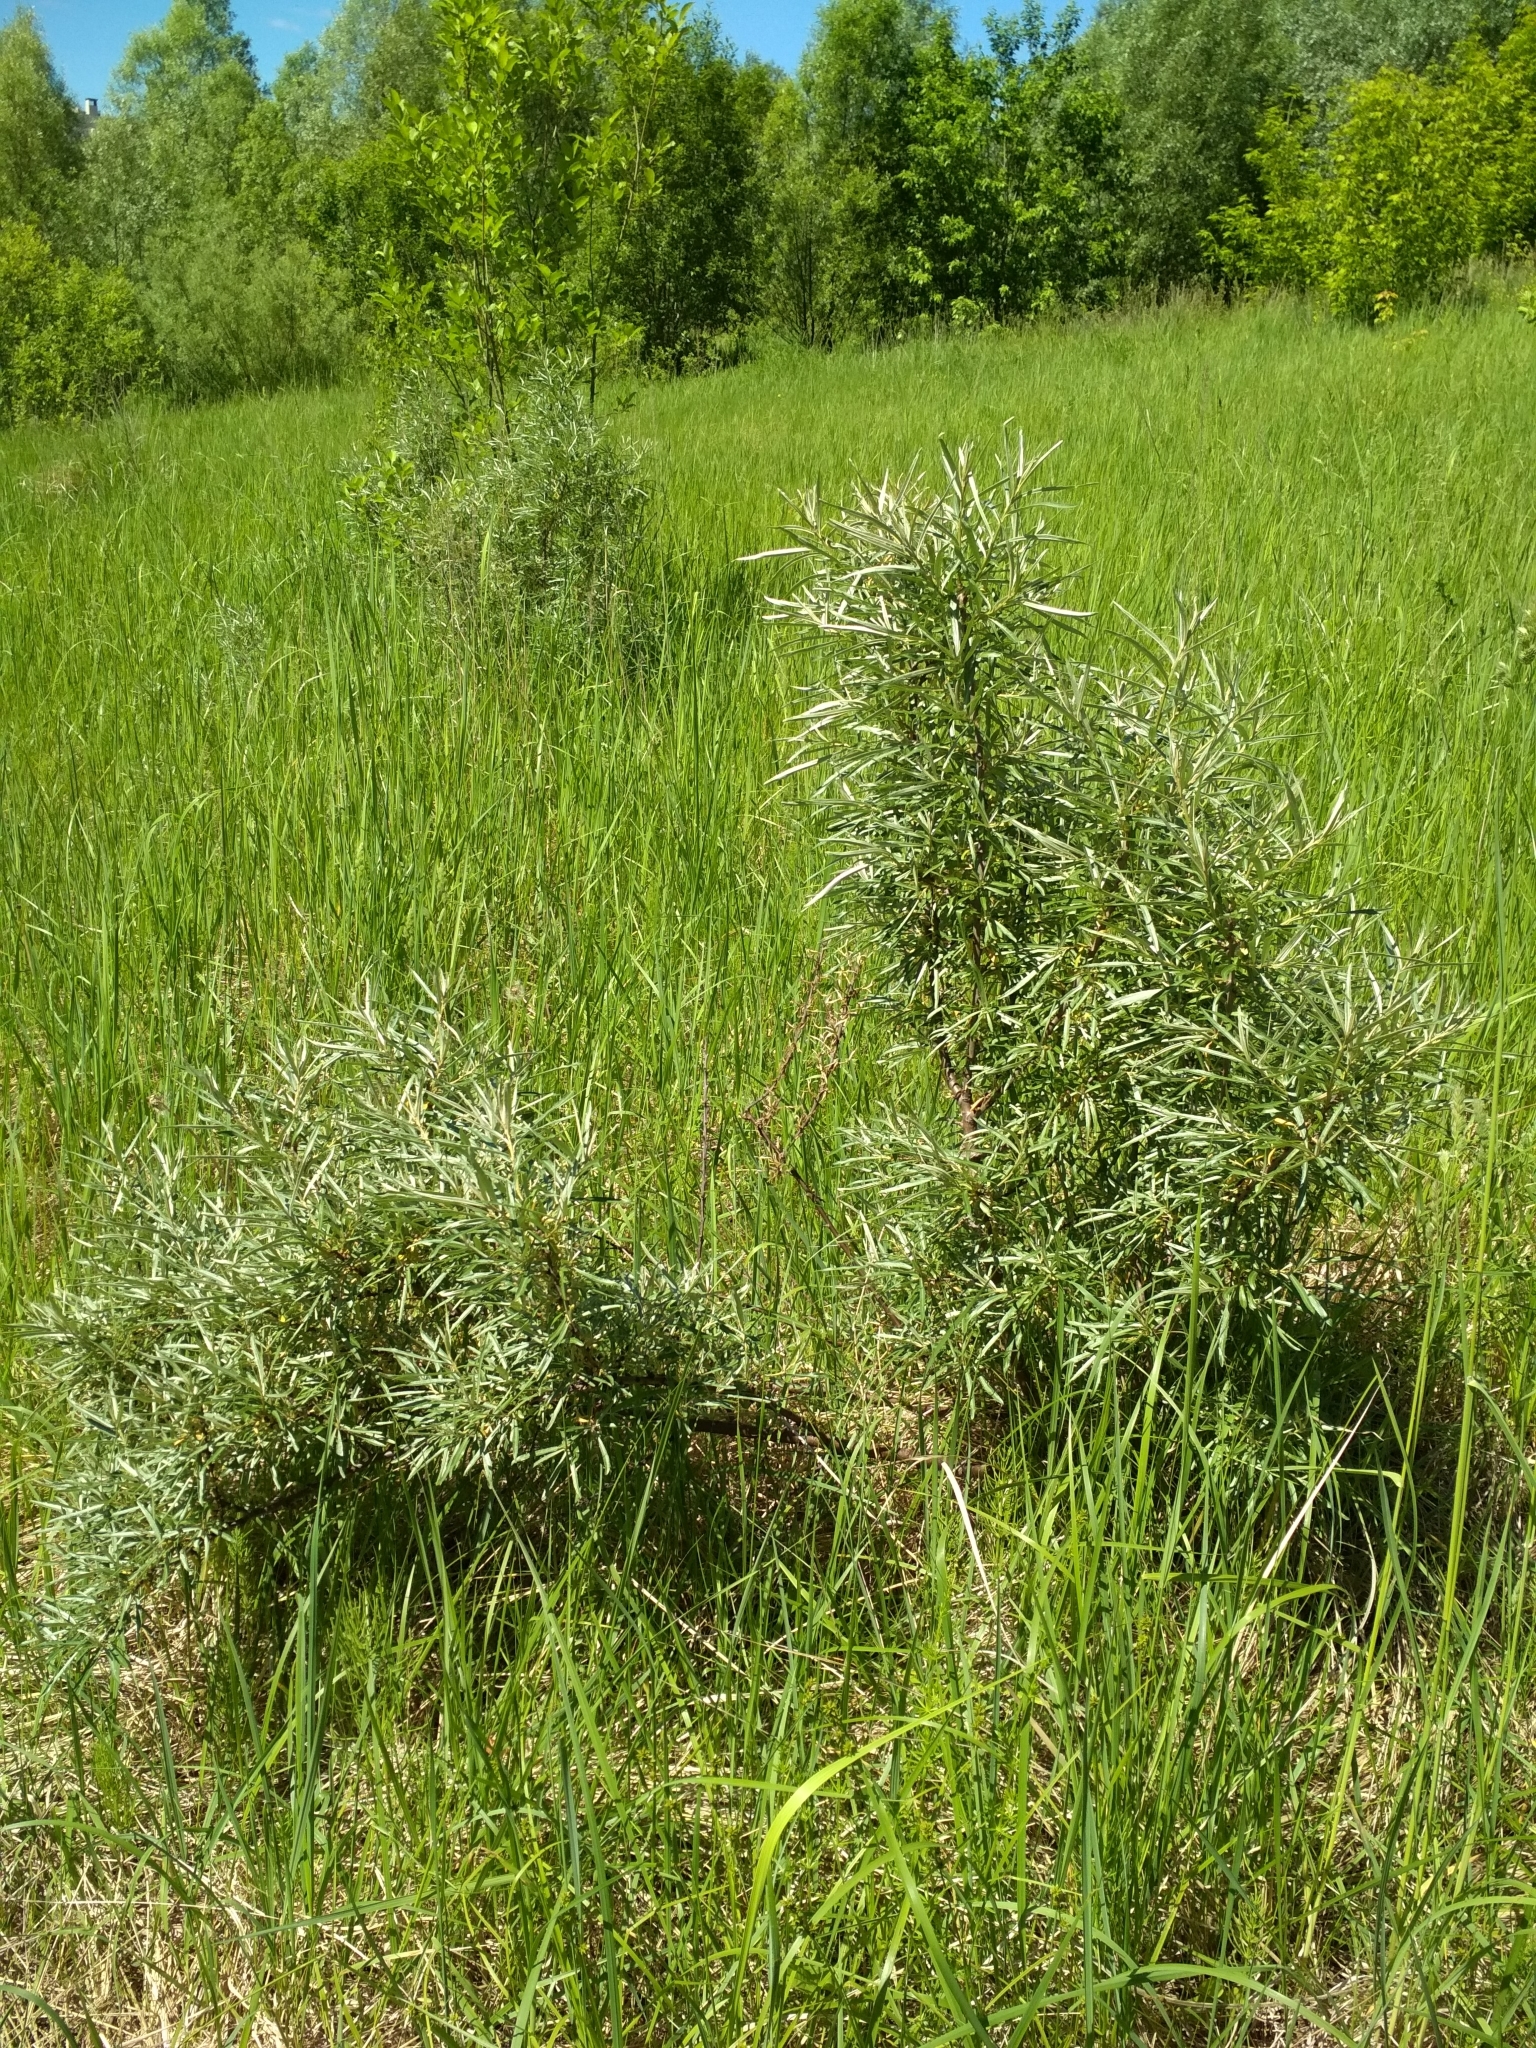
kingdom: Plantae
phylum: Tracheophyta
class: Magnoliopsida
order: Rosales
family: Elaeagnaceae
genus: Hippophae
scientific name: Hippophae rhamnoides
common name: Sea-buckthorn
